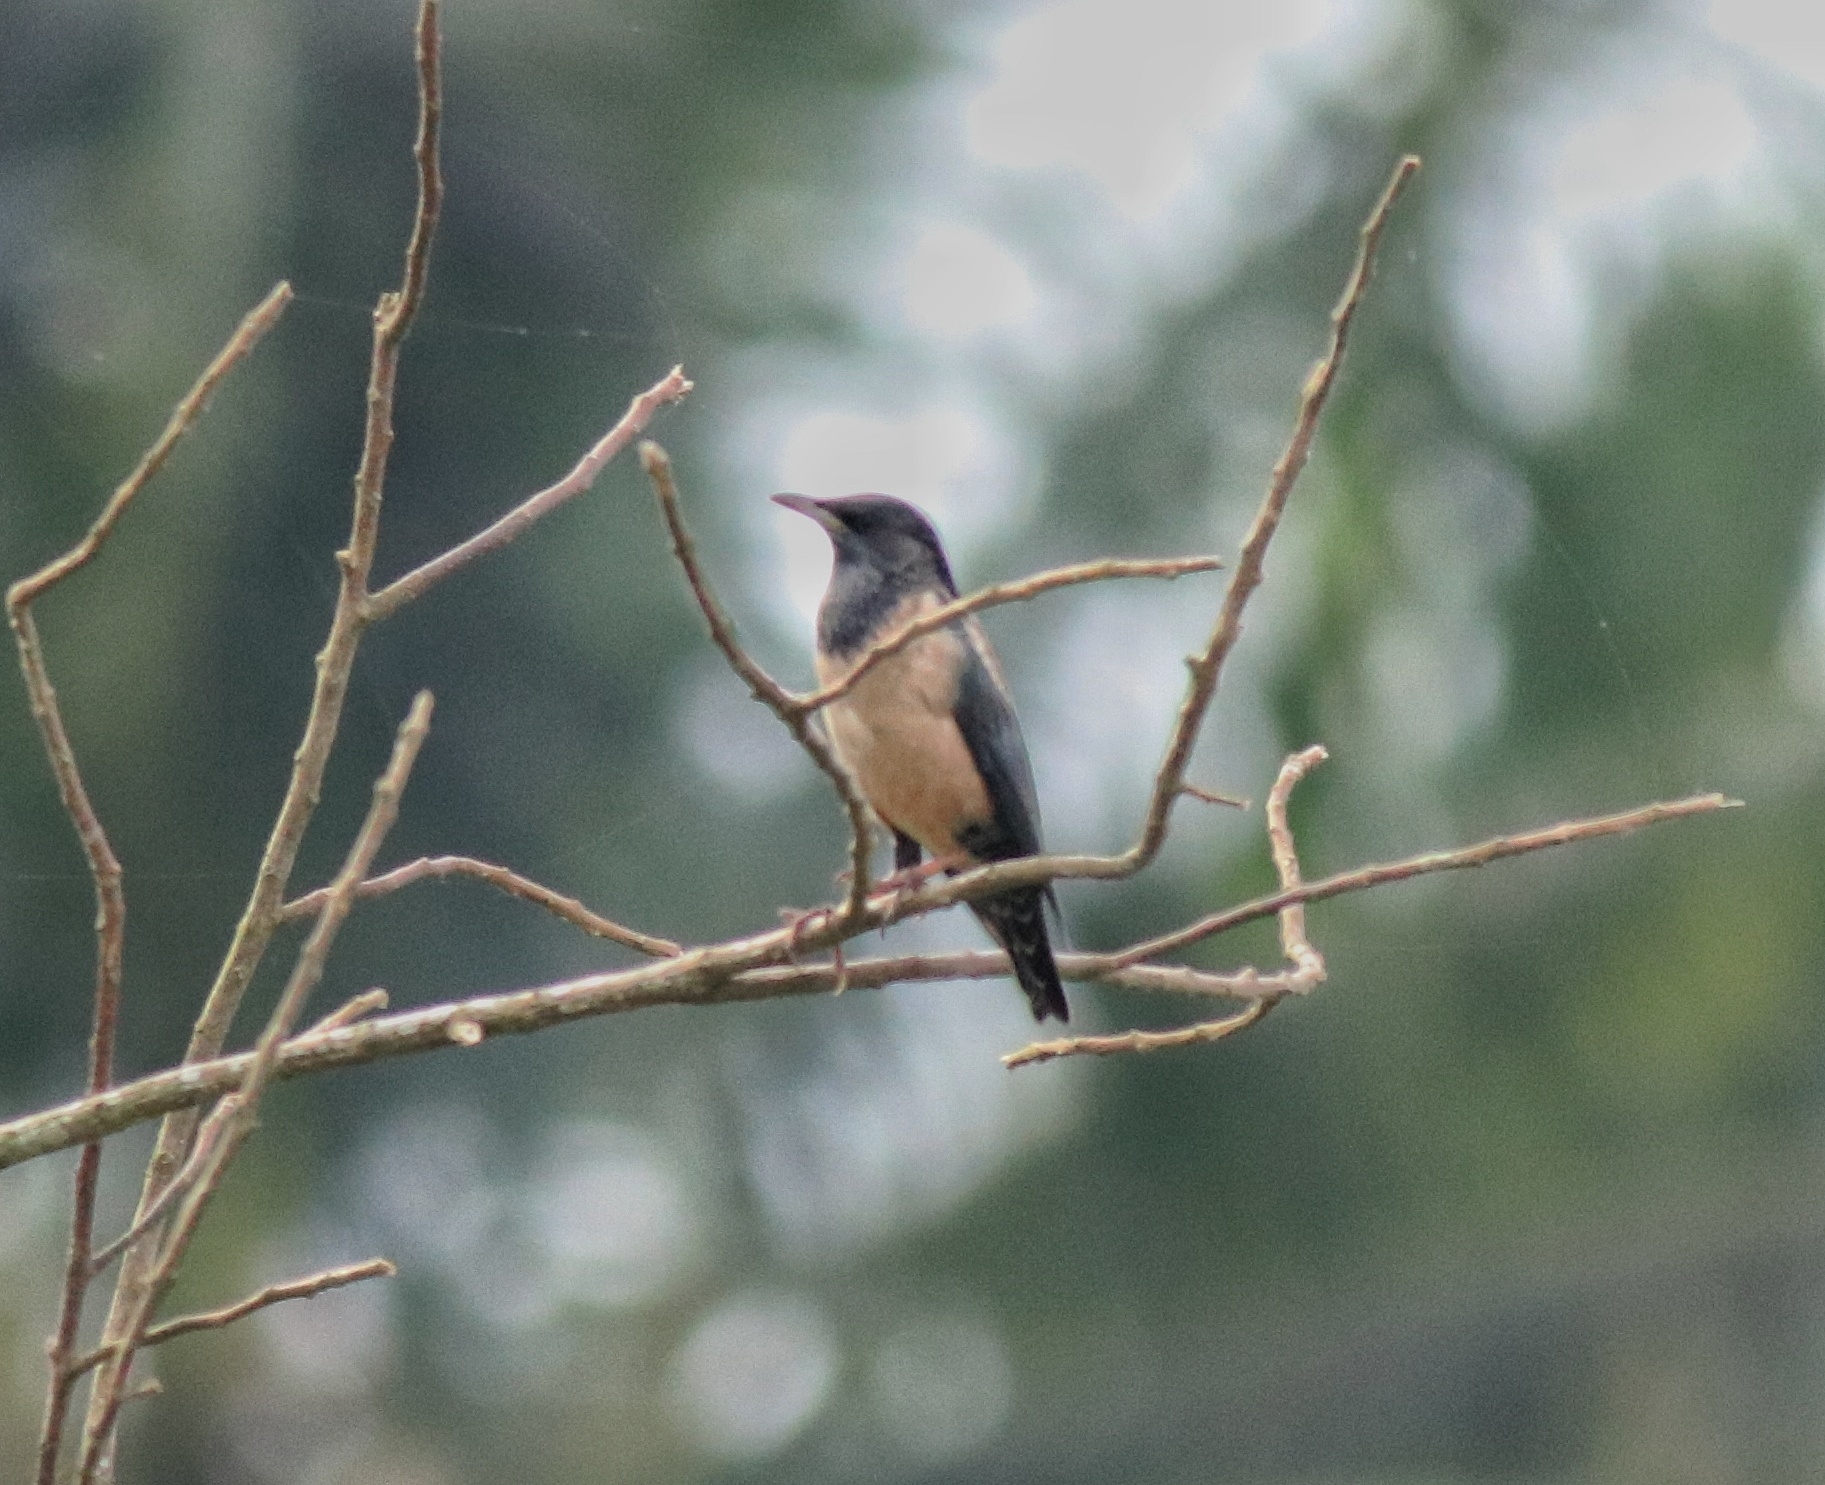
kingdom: Animalia
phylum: Chordata
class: Aves
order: Passeriformes
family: Sturnidae
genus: Pastor
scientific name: Pastor roseus
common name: Rosy starling
